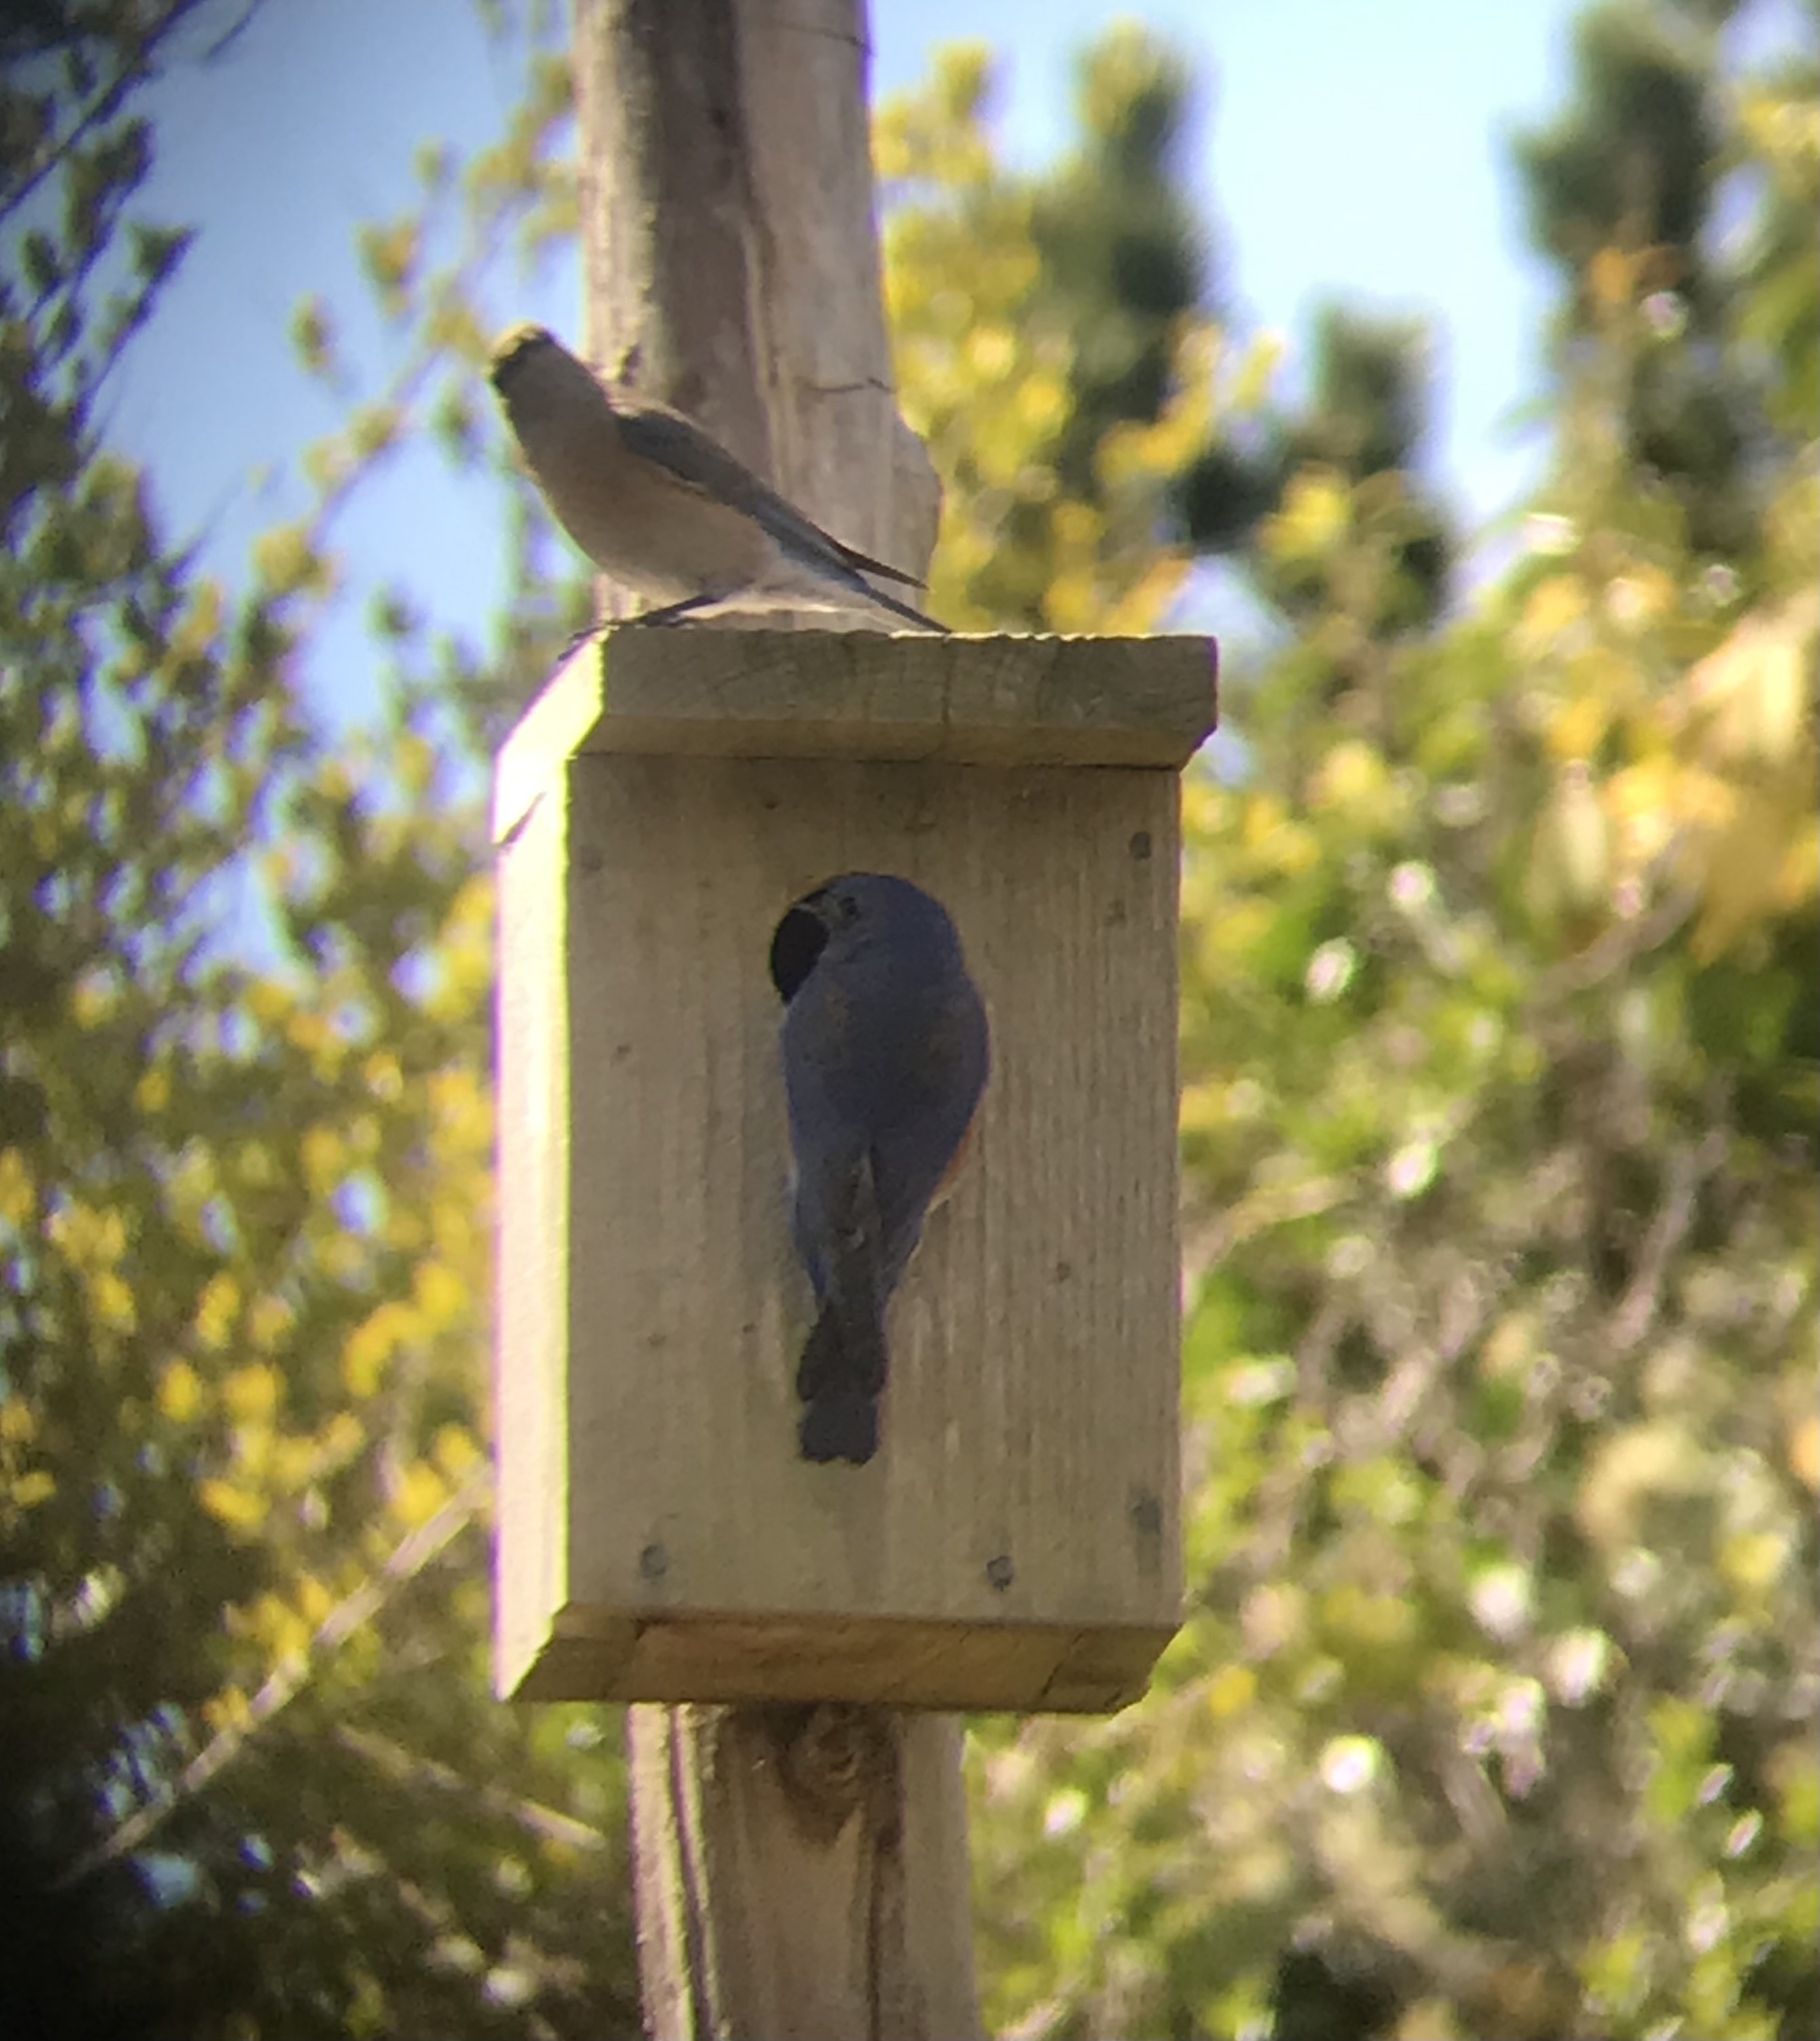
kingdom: Animalia
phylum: Chordata
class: Aves
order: Passeriformes
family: Turdidae
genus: Sialia
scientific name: Sialia mexicana
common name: Western bluebird
